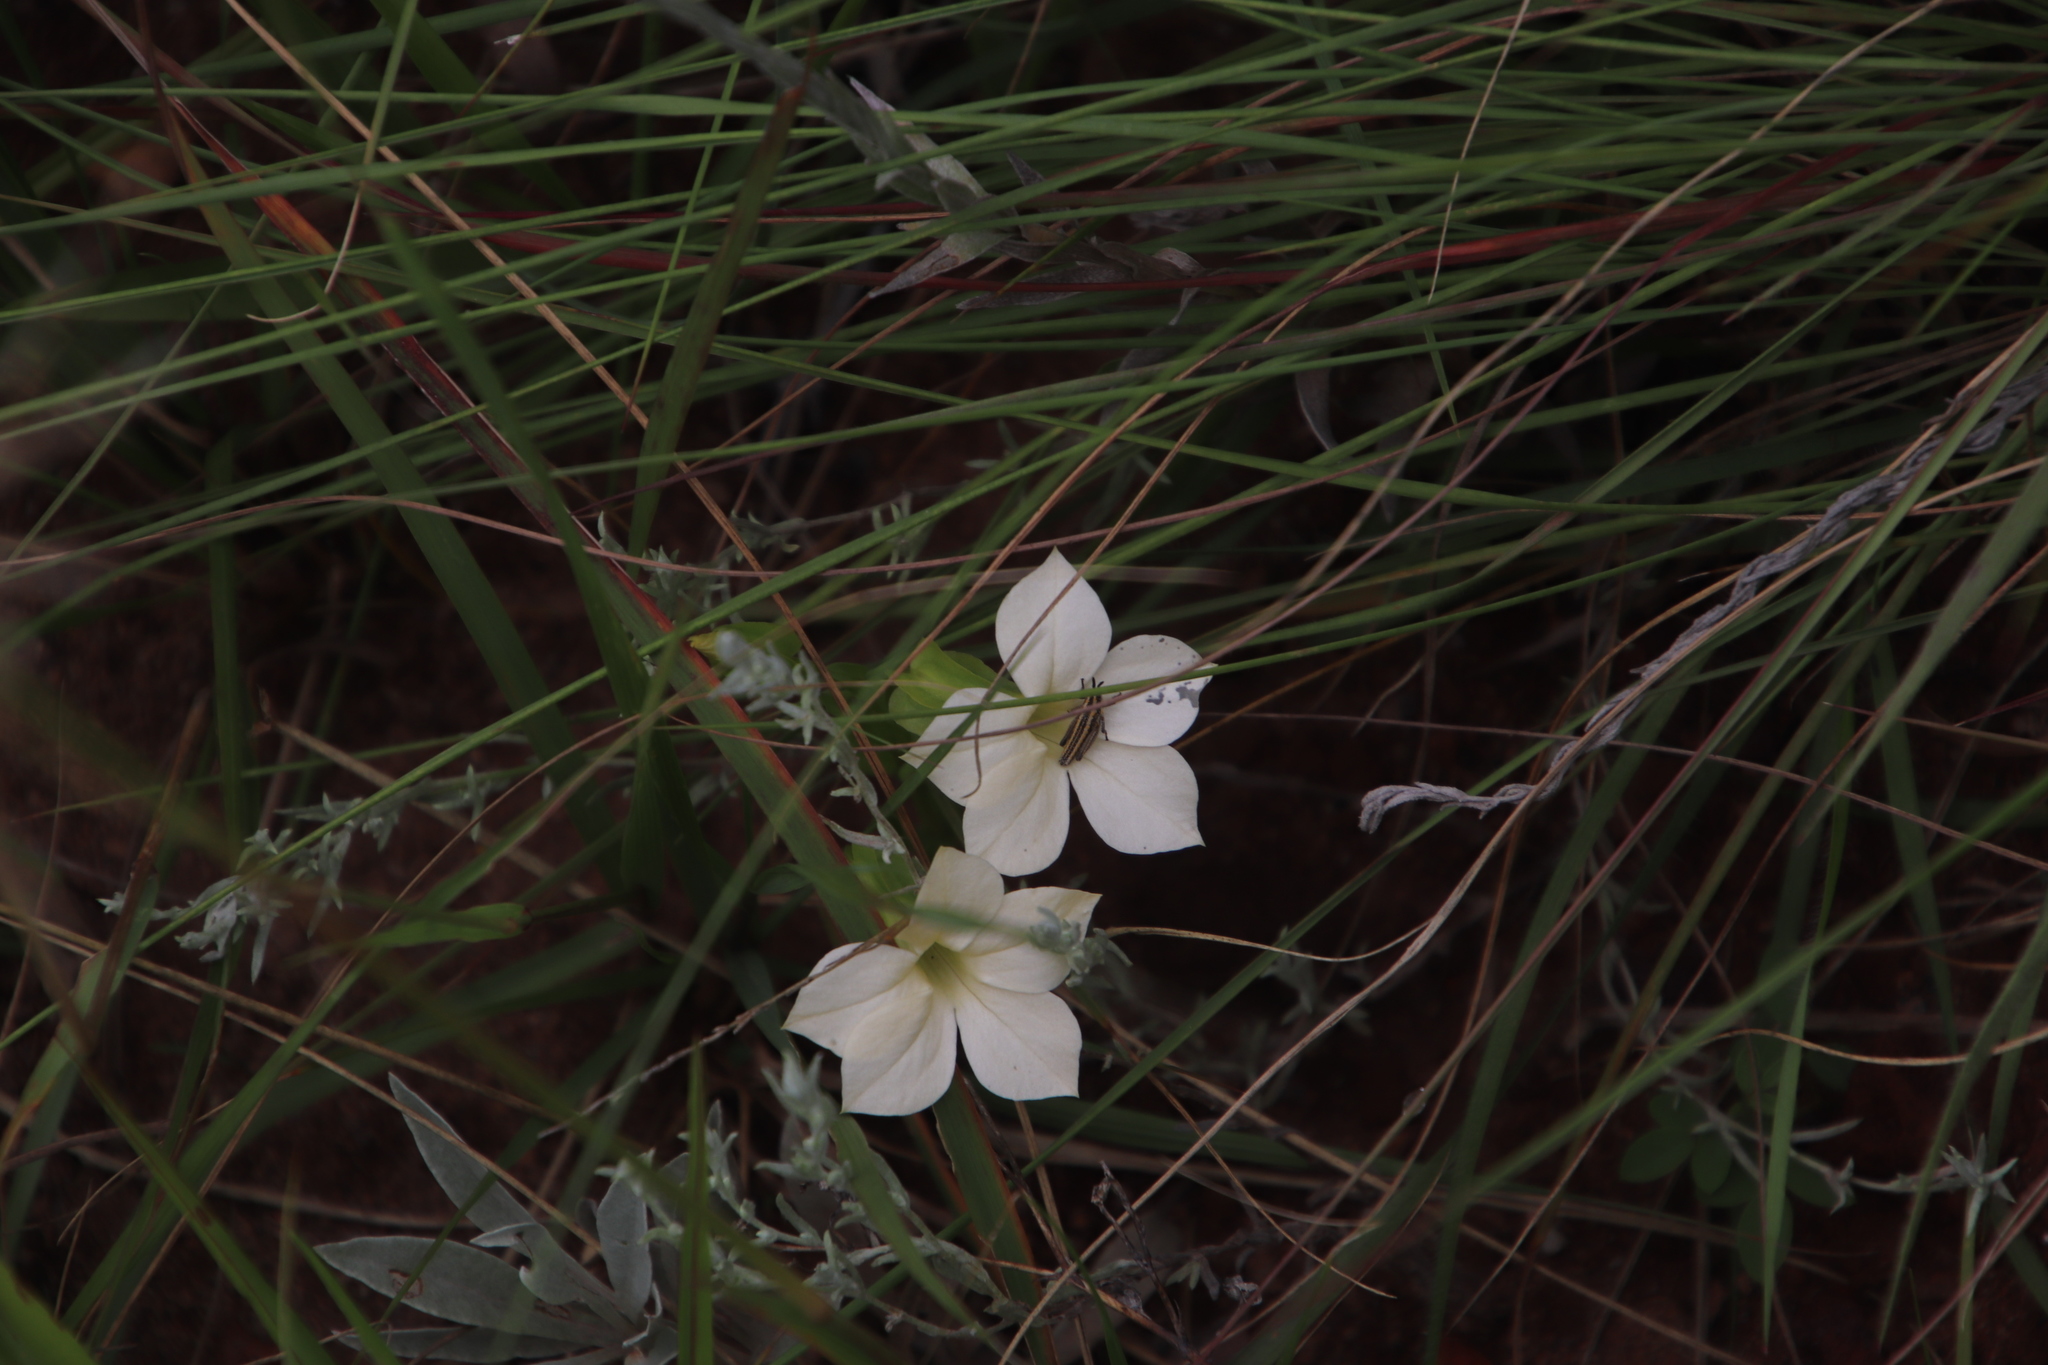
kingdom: Plantae
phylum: Tracheophyta
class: Magnoliopsida
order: Gentianales
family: Gentianaceae
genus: Exochaenium
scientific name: Exochaenium grande
